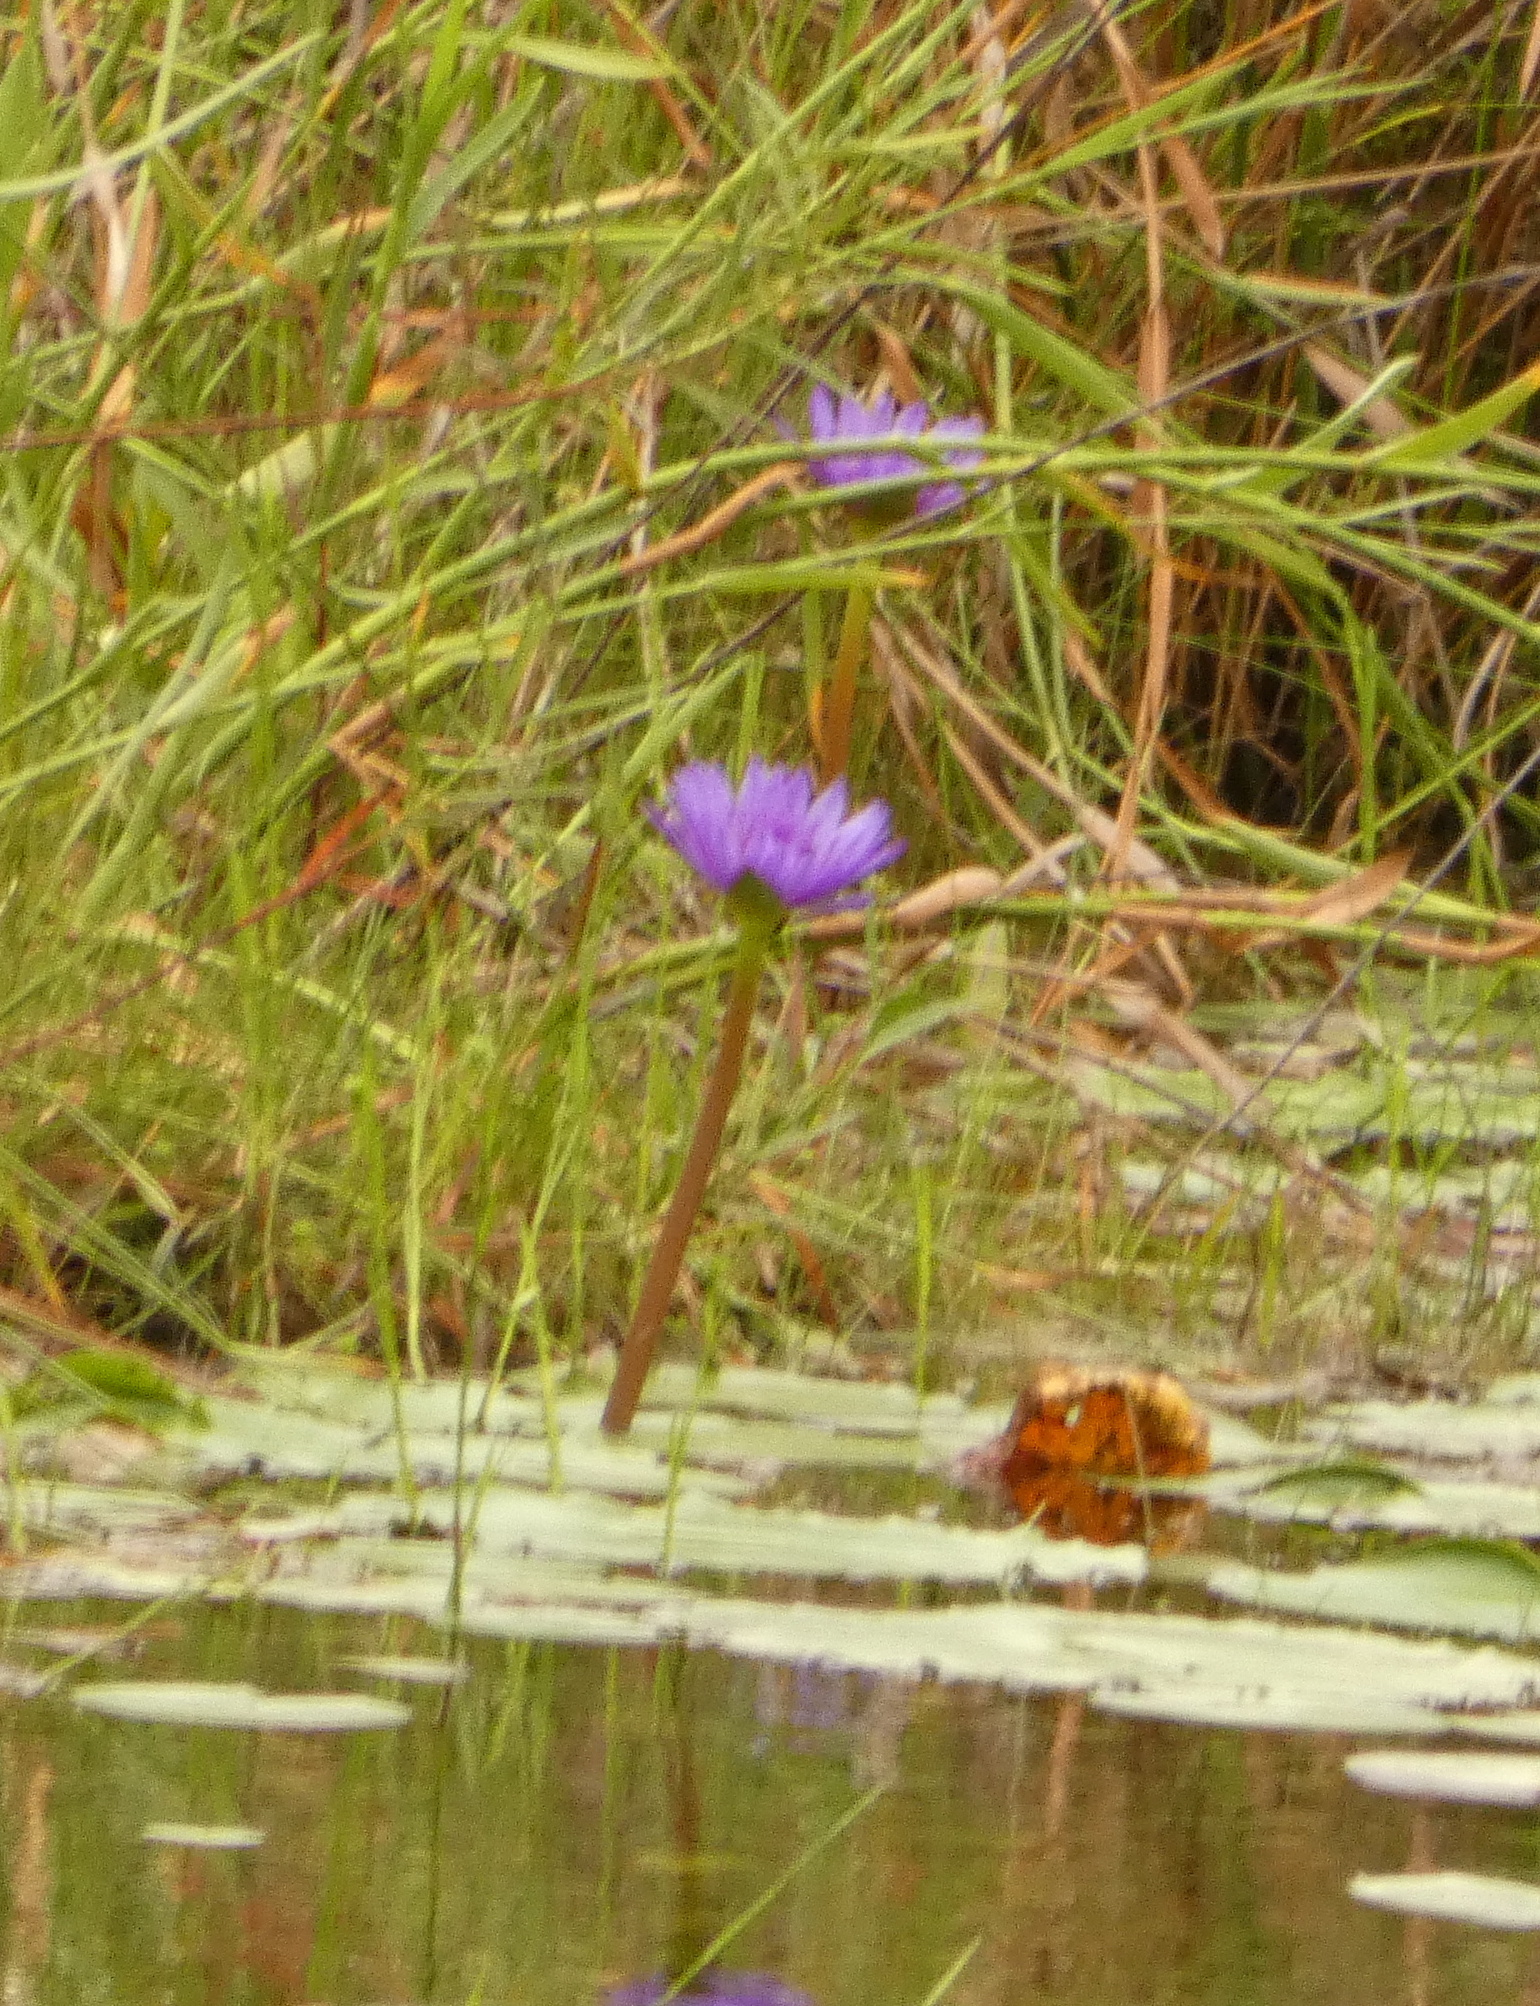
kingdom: Plantae
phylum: Tracheophyta
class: Magnoliopsida
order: Nymphaeales
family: Nymphaeaceae
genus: Nymphaea
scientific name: Nymphaea nouchali
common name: Blue lotus
